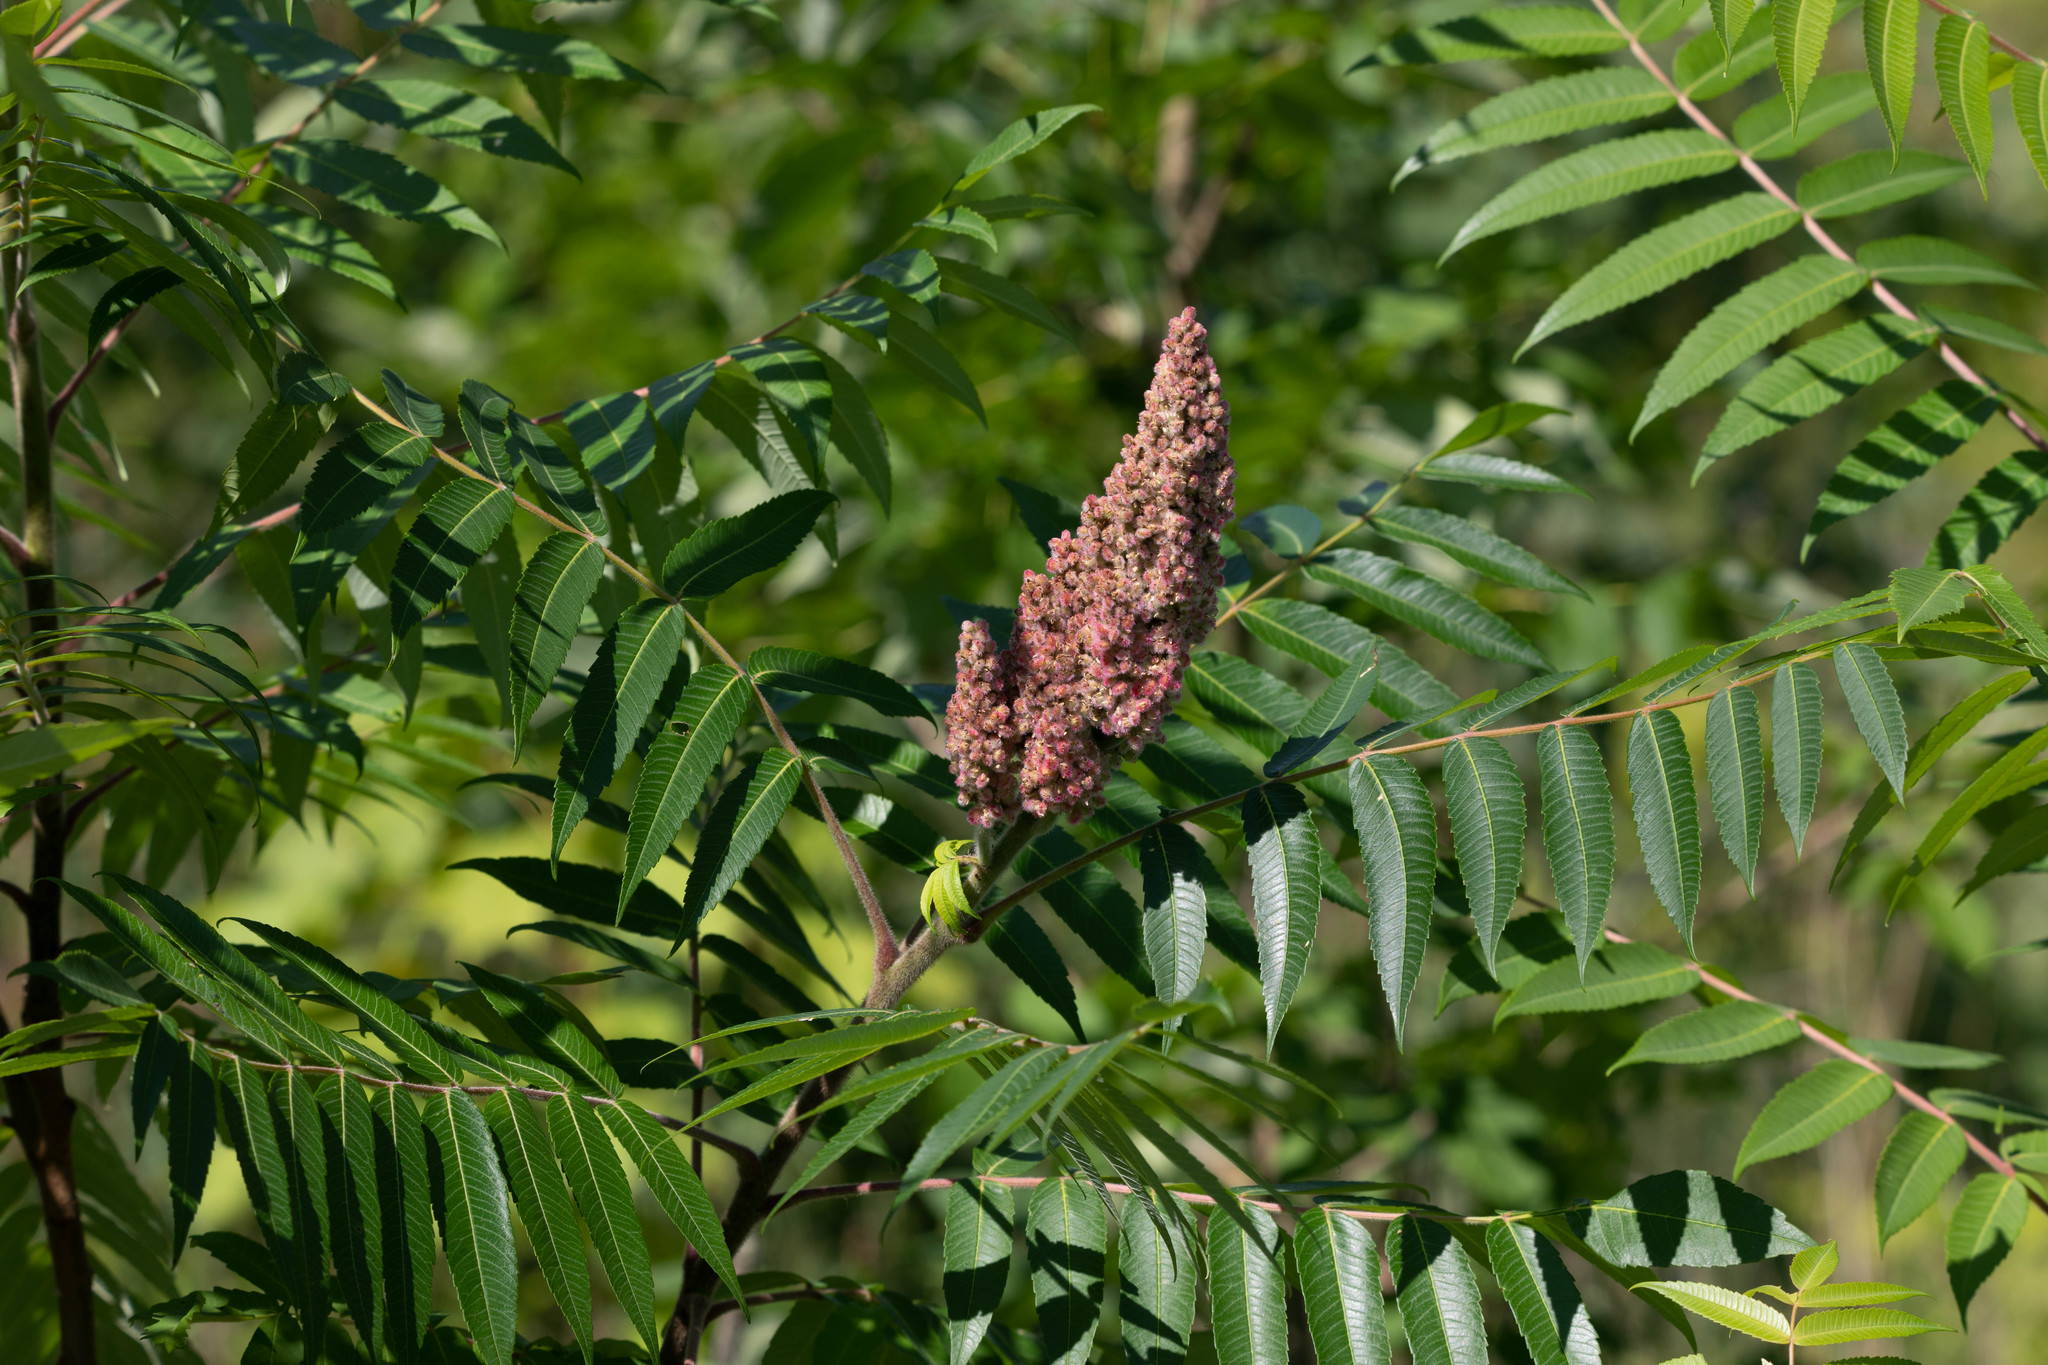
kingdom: Plantae
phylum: Tracheophyta
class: Magnoliopsida
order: Sapindales
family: Anacardiaceae
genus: Rhus
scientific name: Rhus typhina
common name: Staghorn sumac
